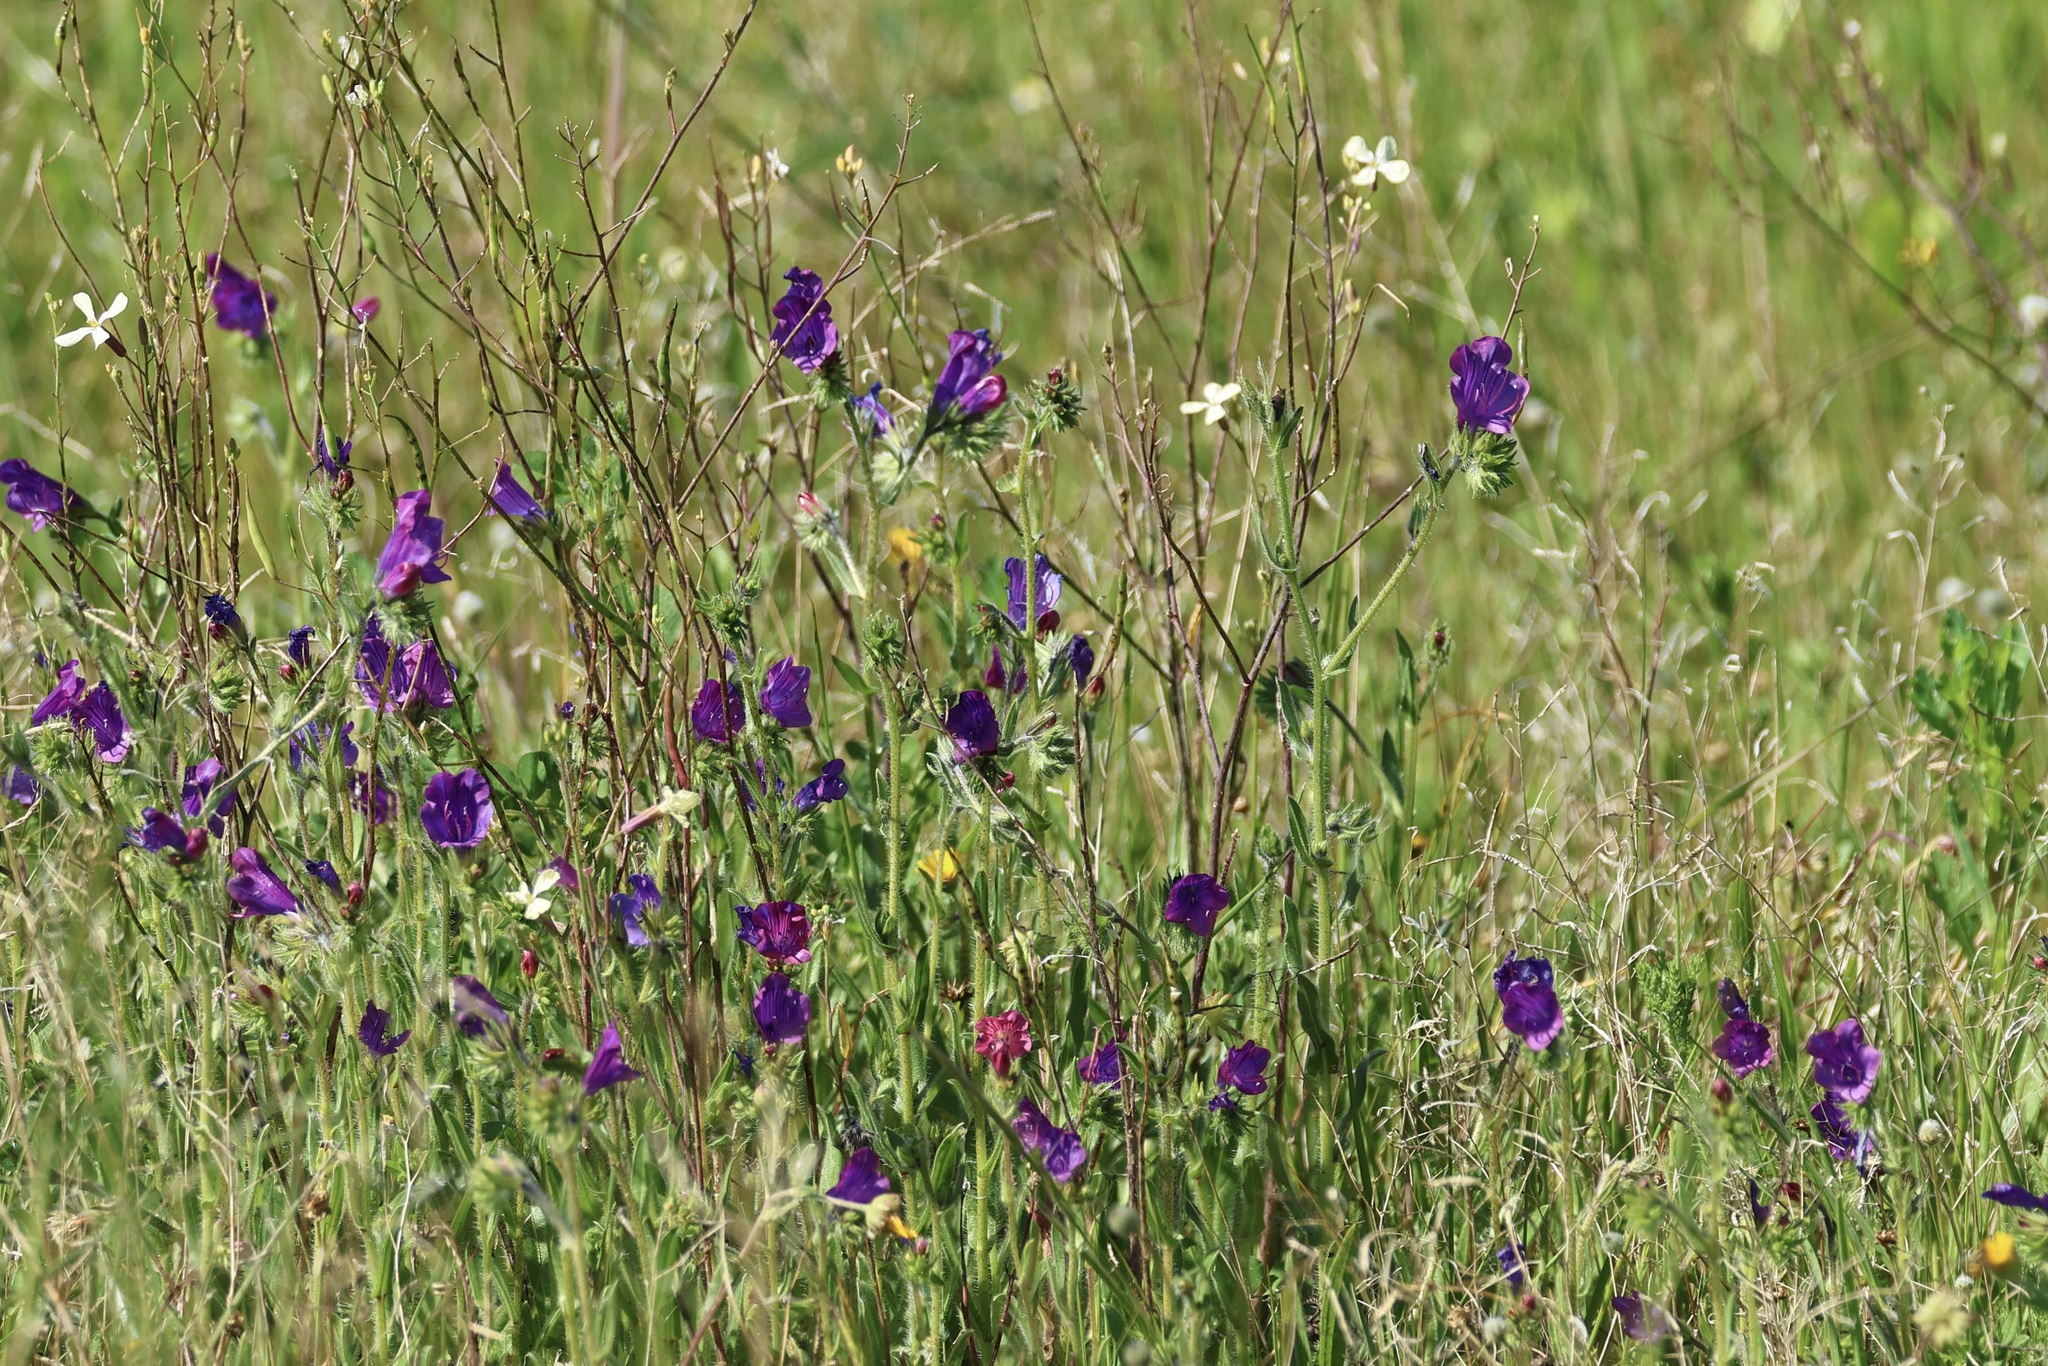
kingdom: Plantae
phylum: Tracheophyta
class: Magnoliopsida
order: Boraginales
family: Boraginaceae
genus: Echium
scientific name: Echium plantagineum
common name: Purple viper's-bugloss
